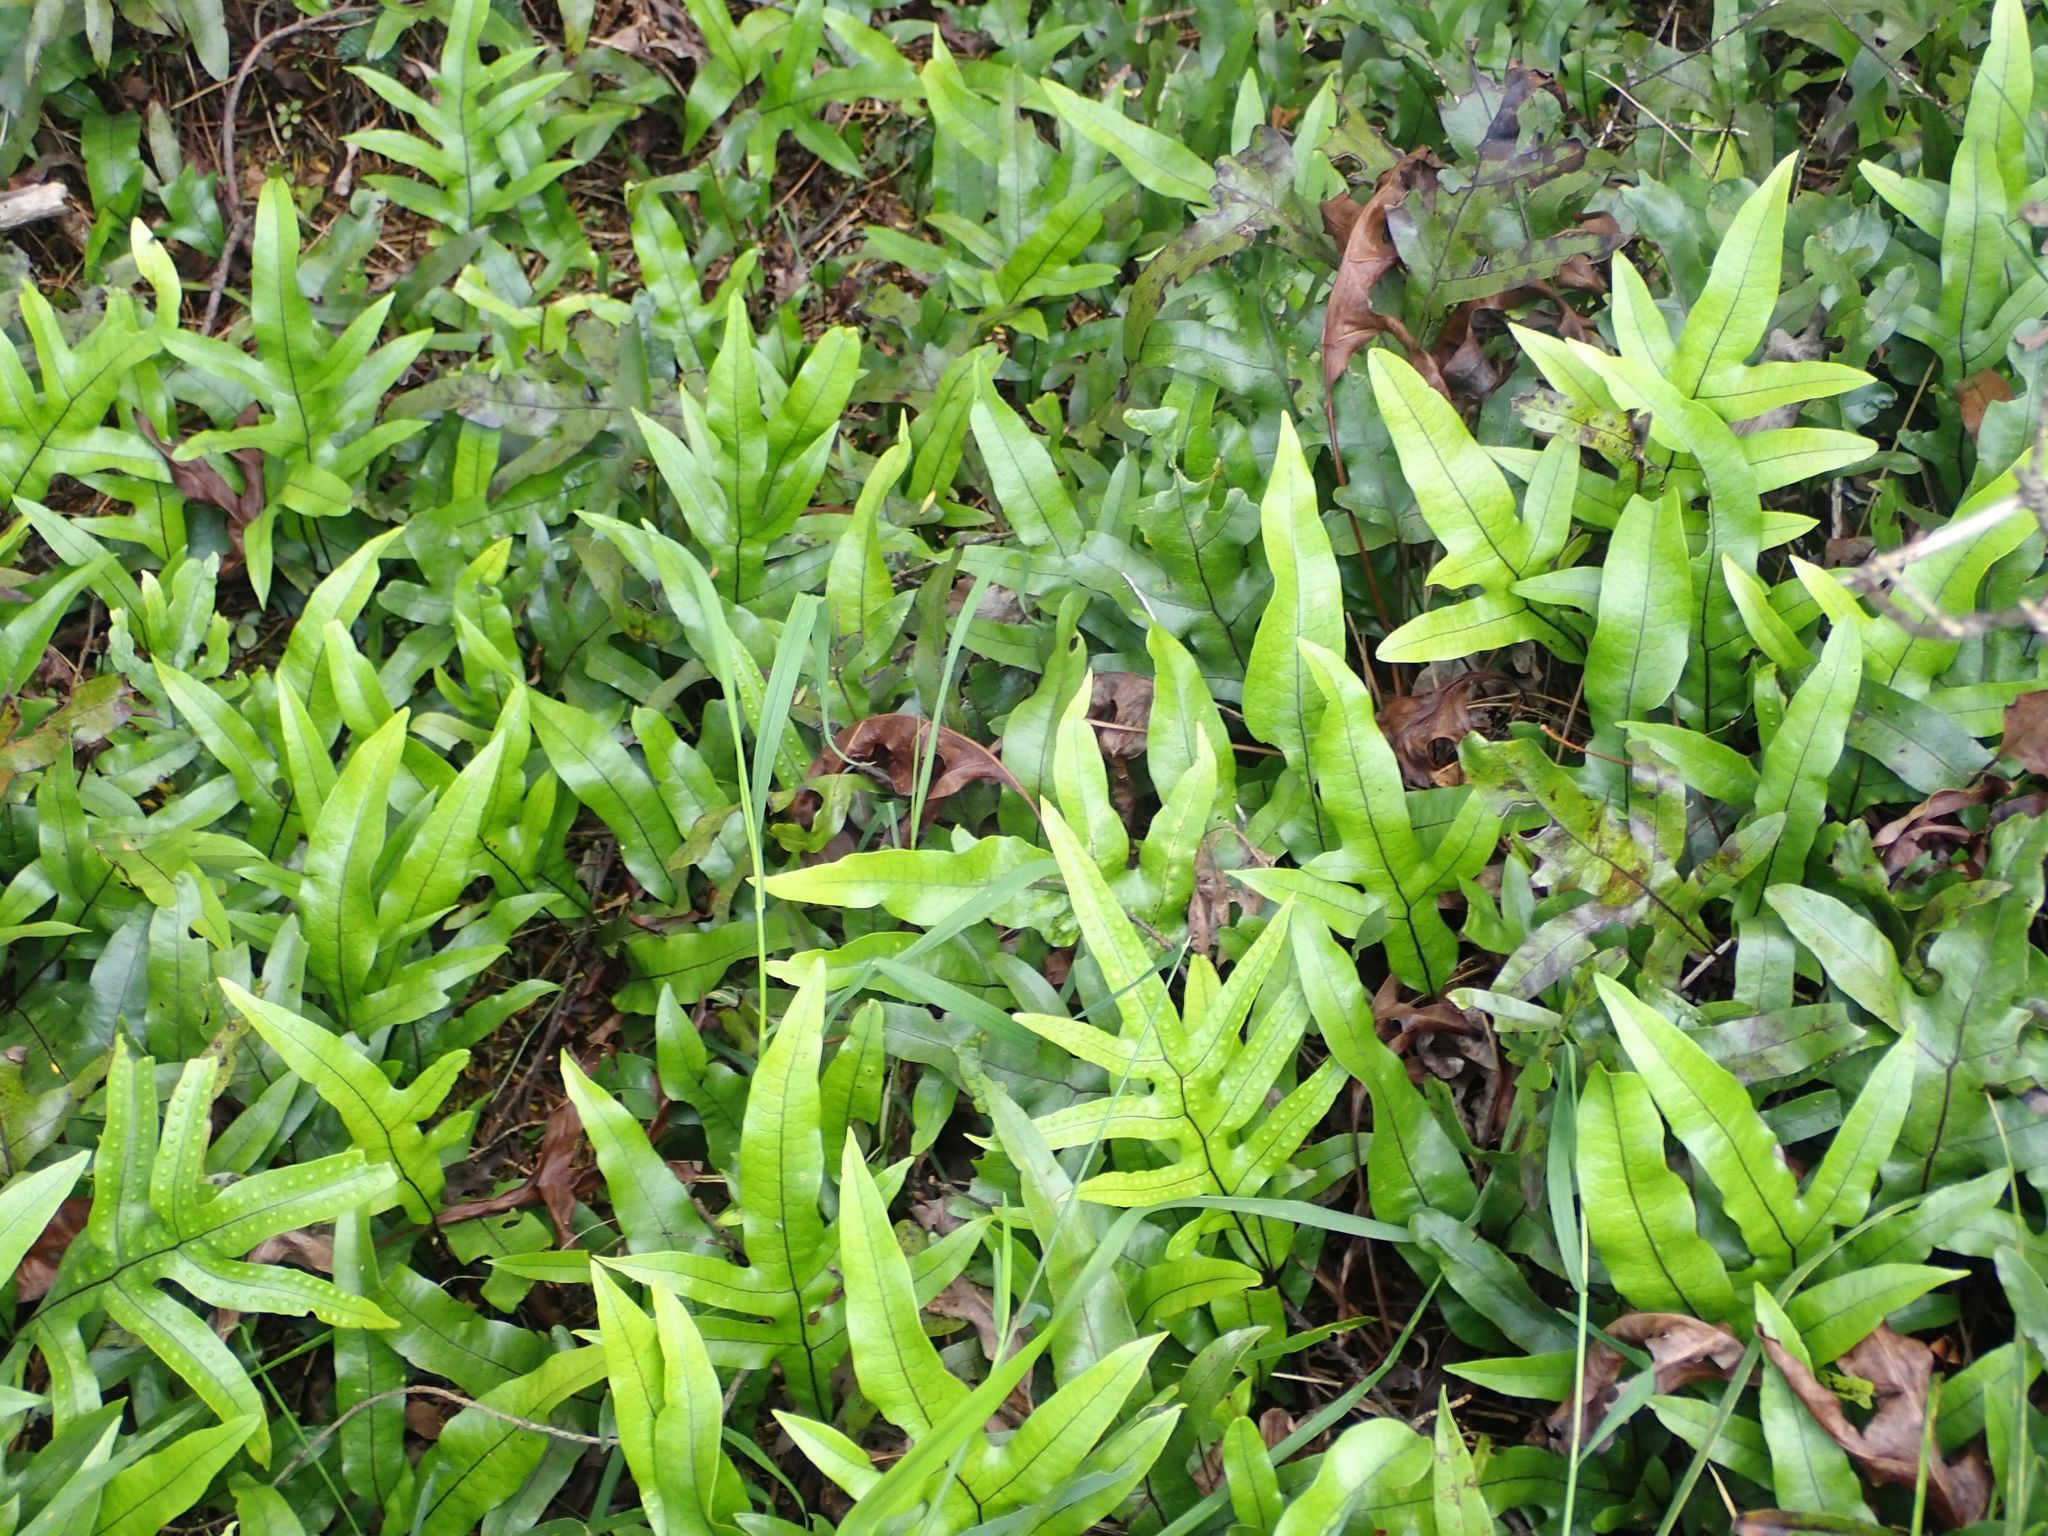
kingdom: Plantae
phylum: Tracheophyta
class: Polypodiopsida
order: Polypodiales
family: Polypodiaceae
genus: Lecanopteris
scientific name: Lecanopteris pustulata
